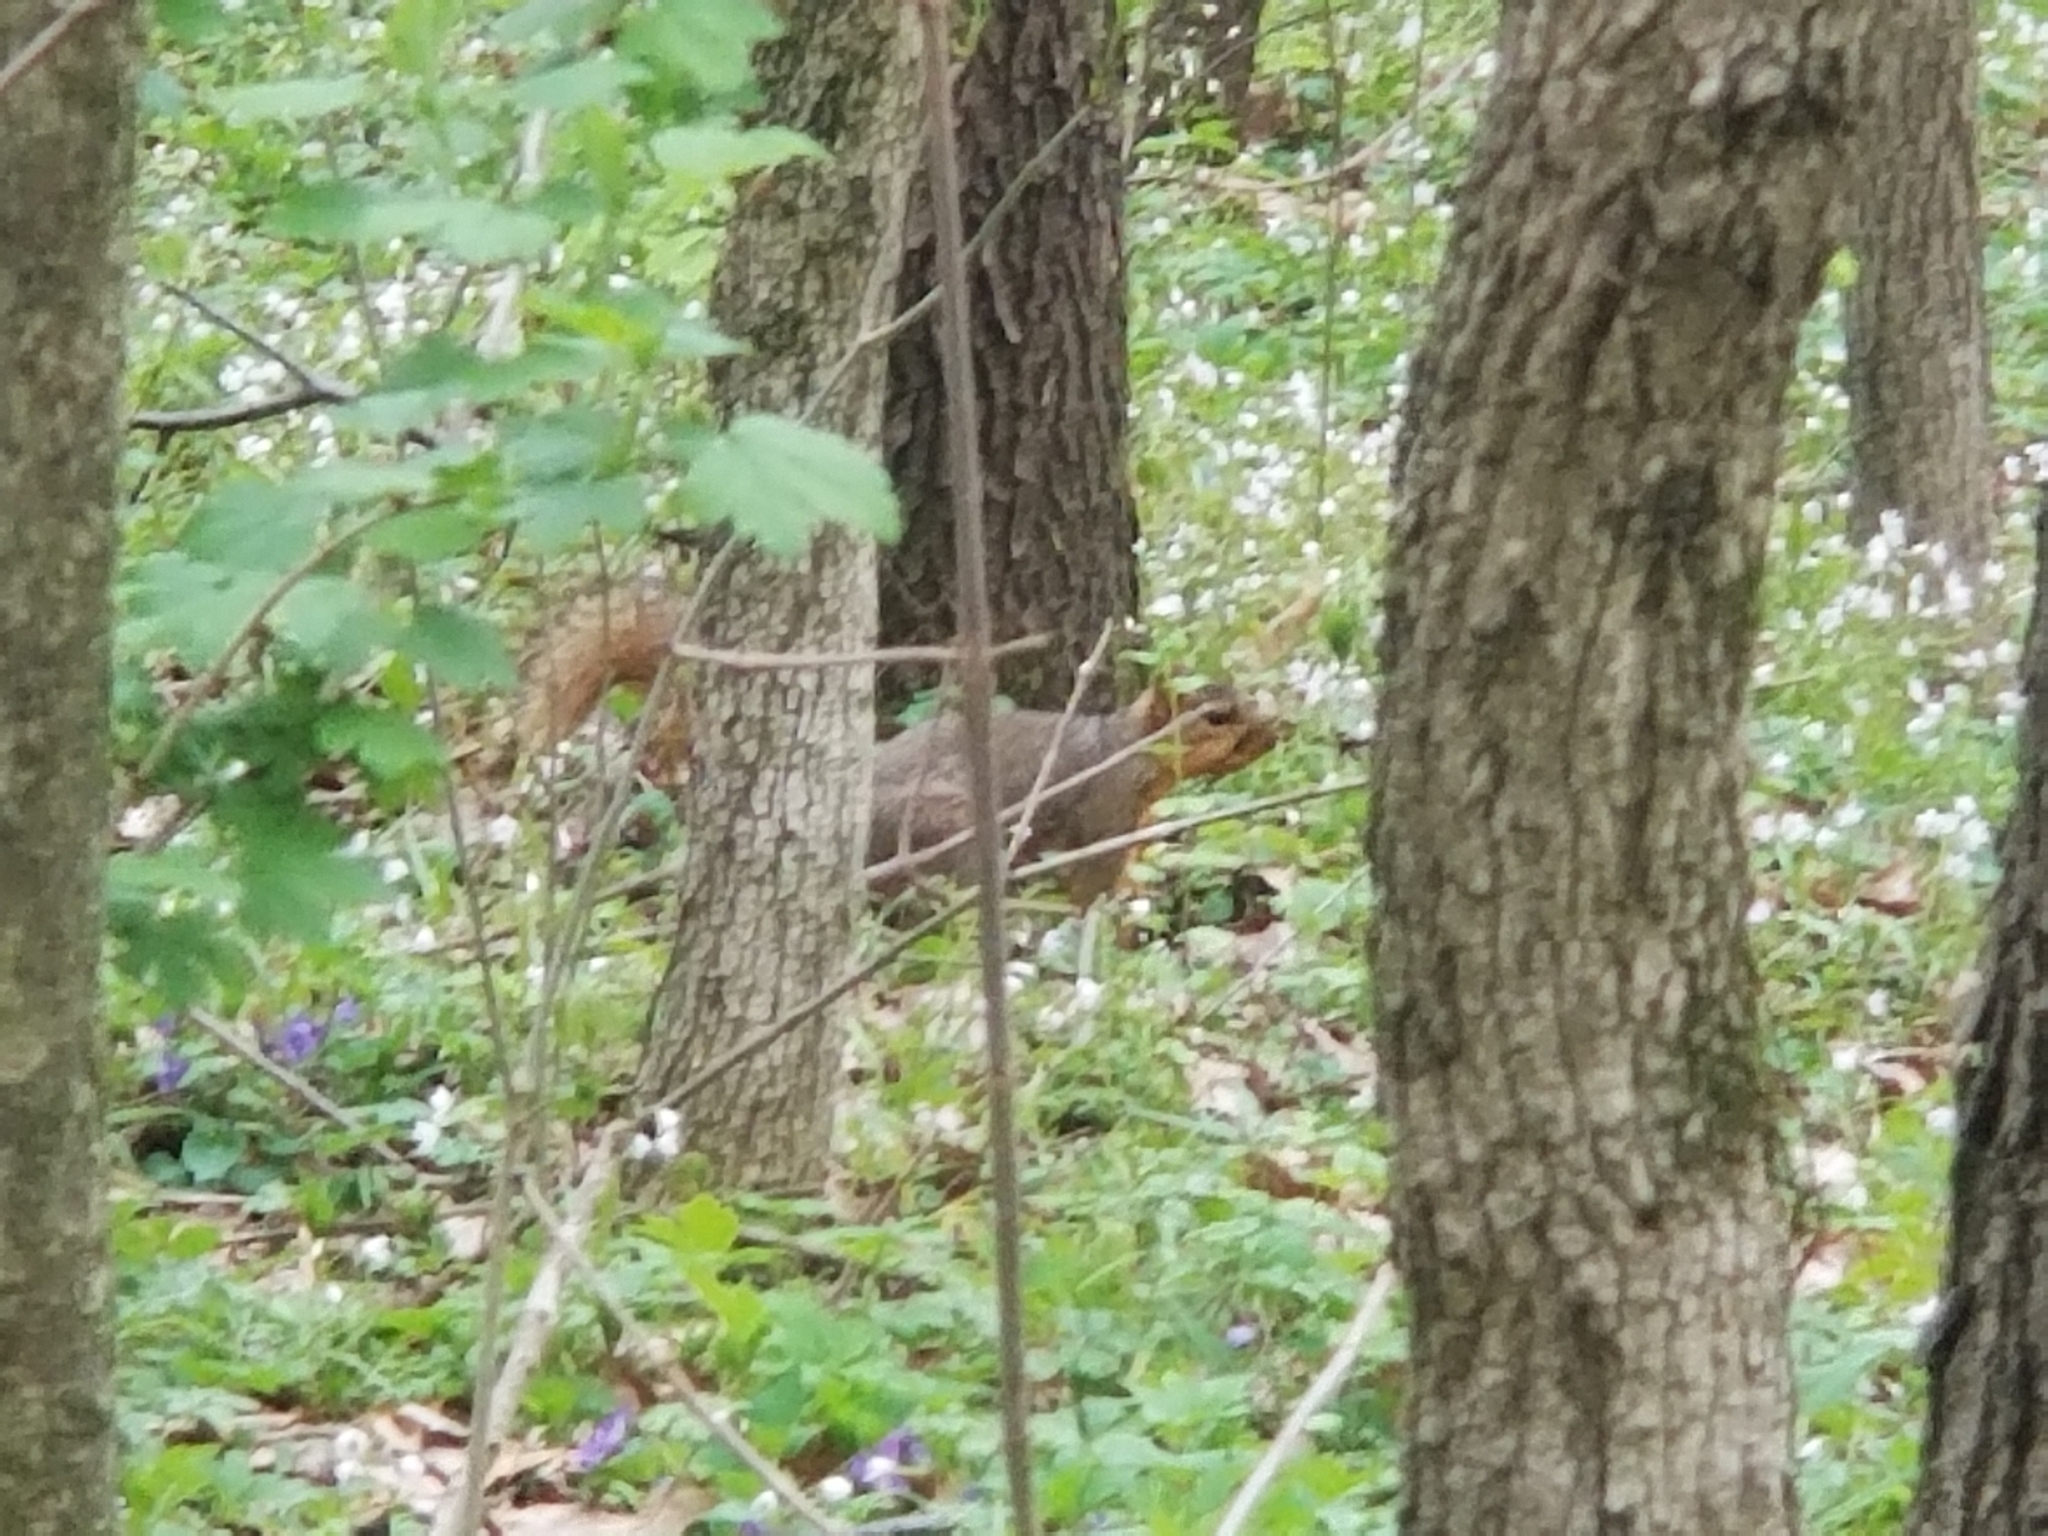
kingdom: Animalia
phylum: Chordata
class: Mammalia
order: Rodentia
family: Sciuridae
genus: Sciurus
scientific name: Sciurus niger
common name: Fox squirrel
